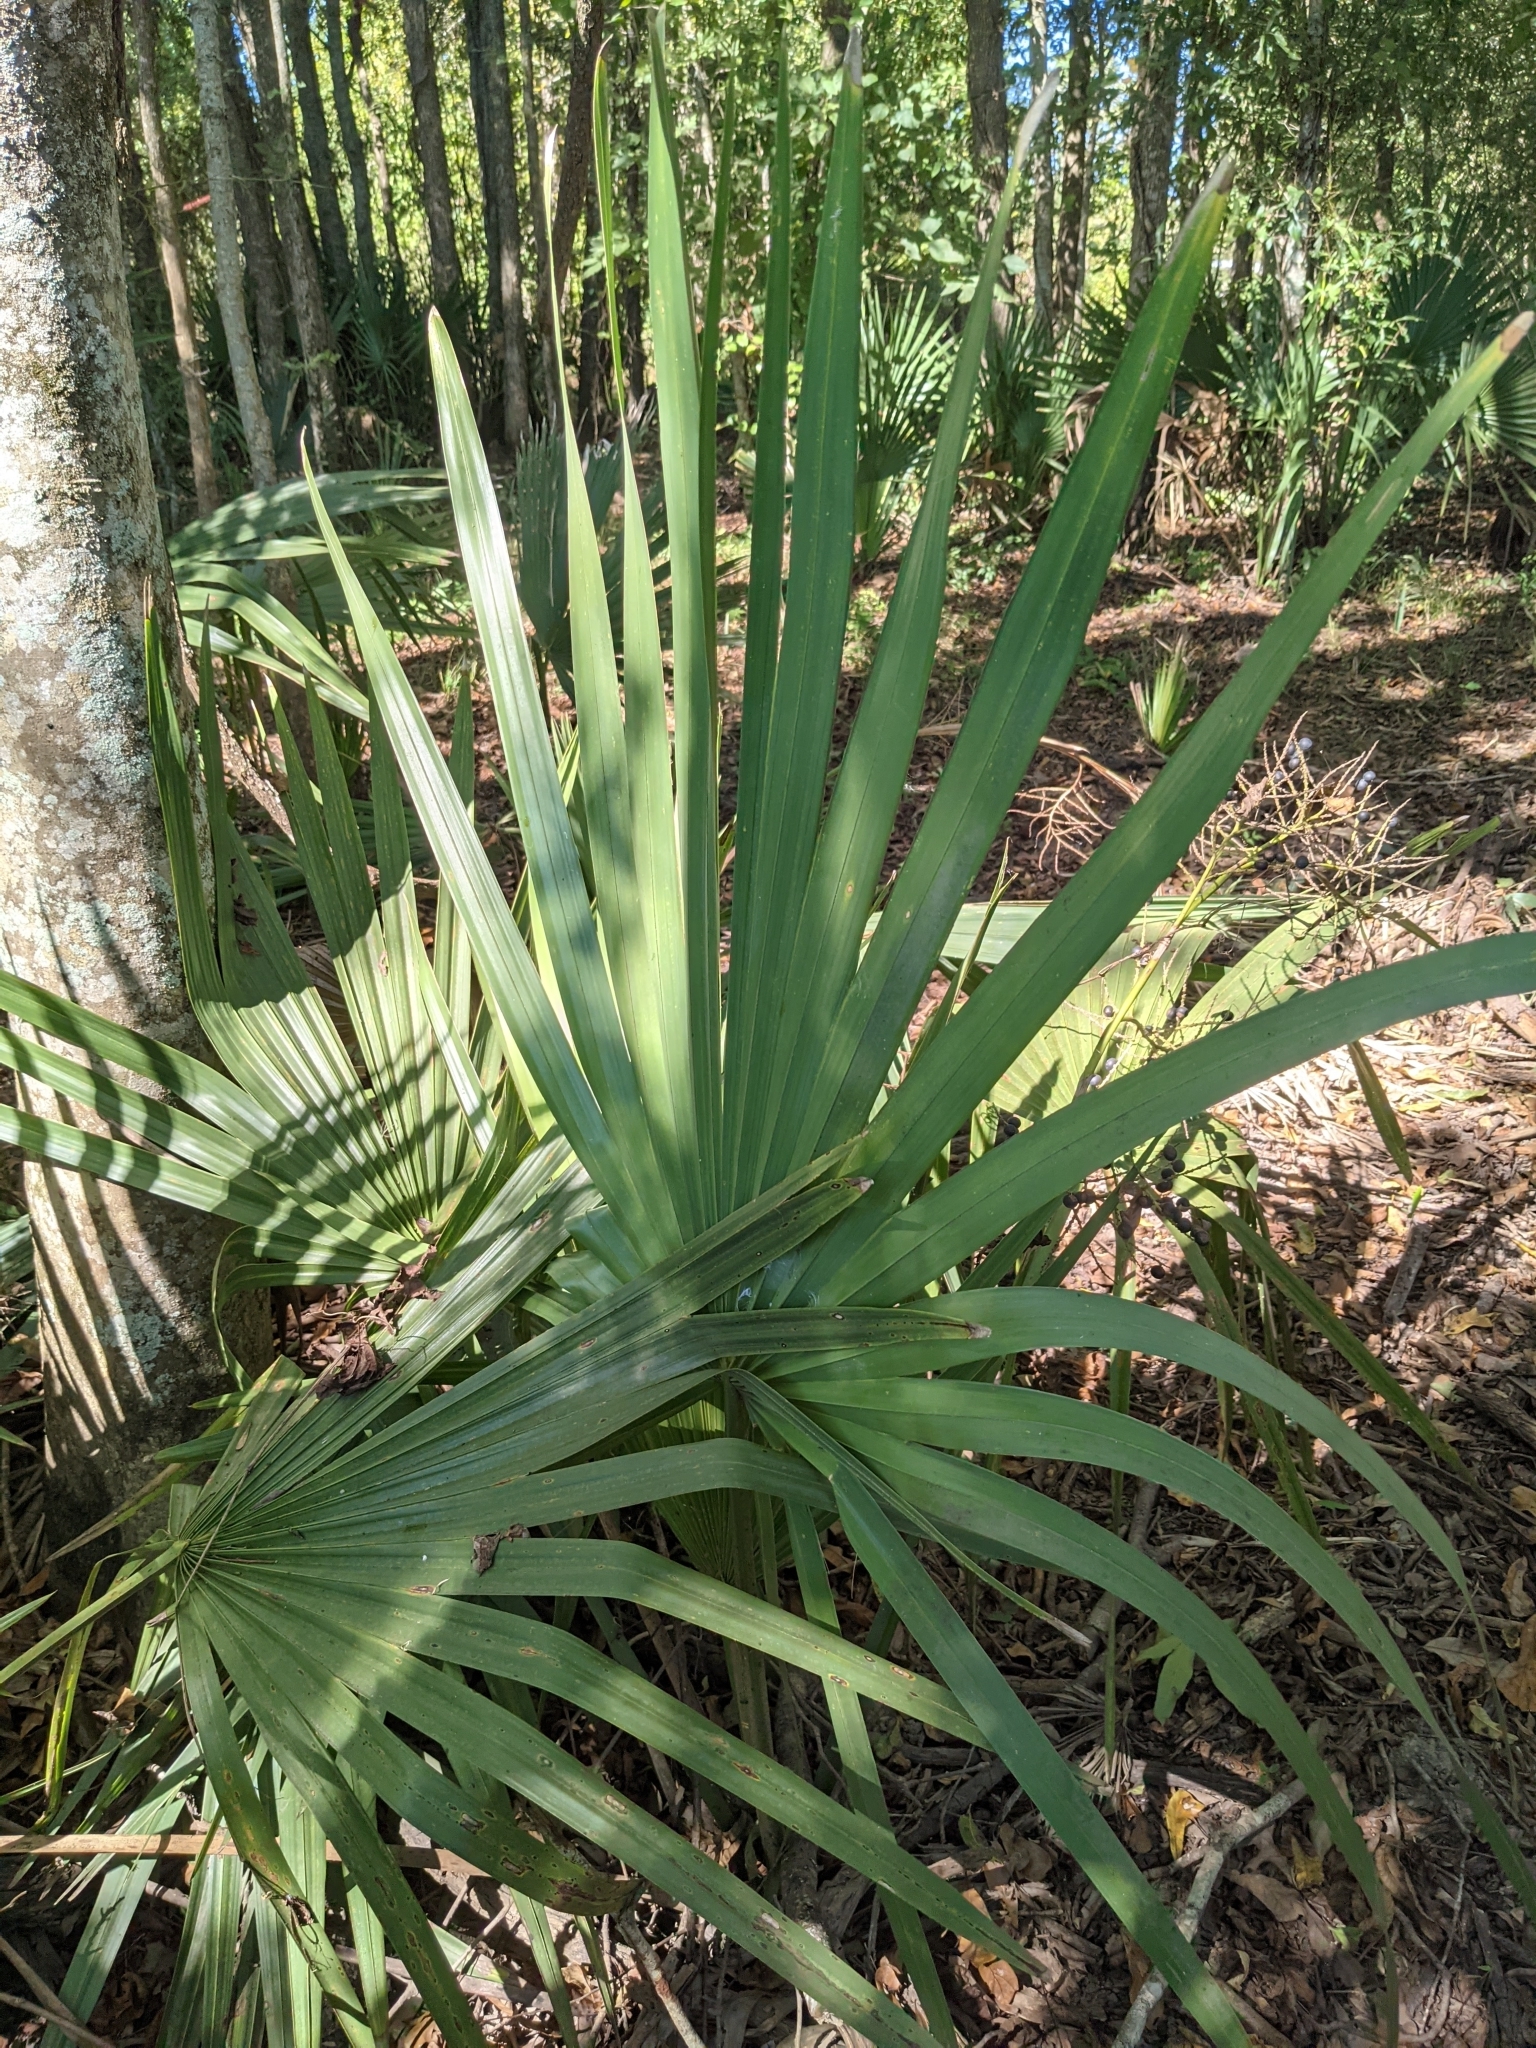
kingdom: Plantae
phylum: Tracheophyta
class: Liliopsida
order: Arecales
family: Arecaceae
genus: Sabal
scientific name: Sabal minor
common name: Dwarf palmetto
